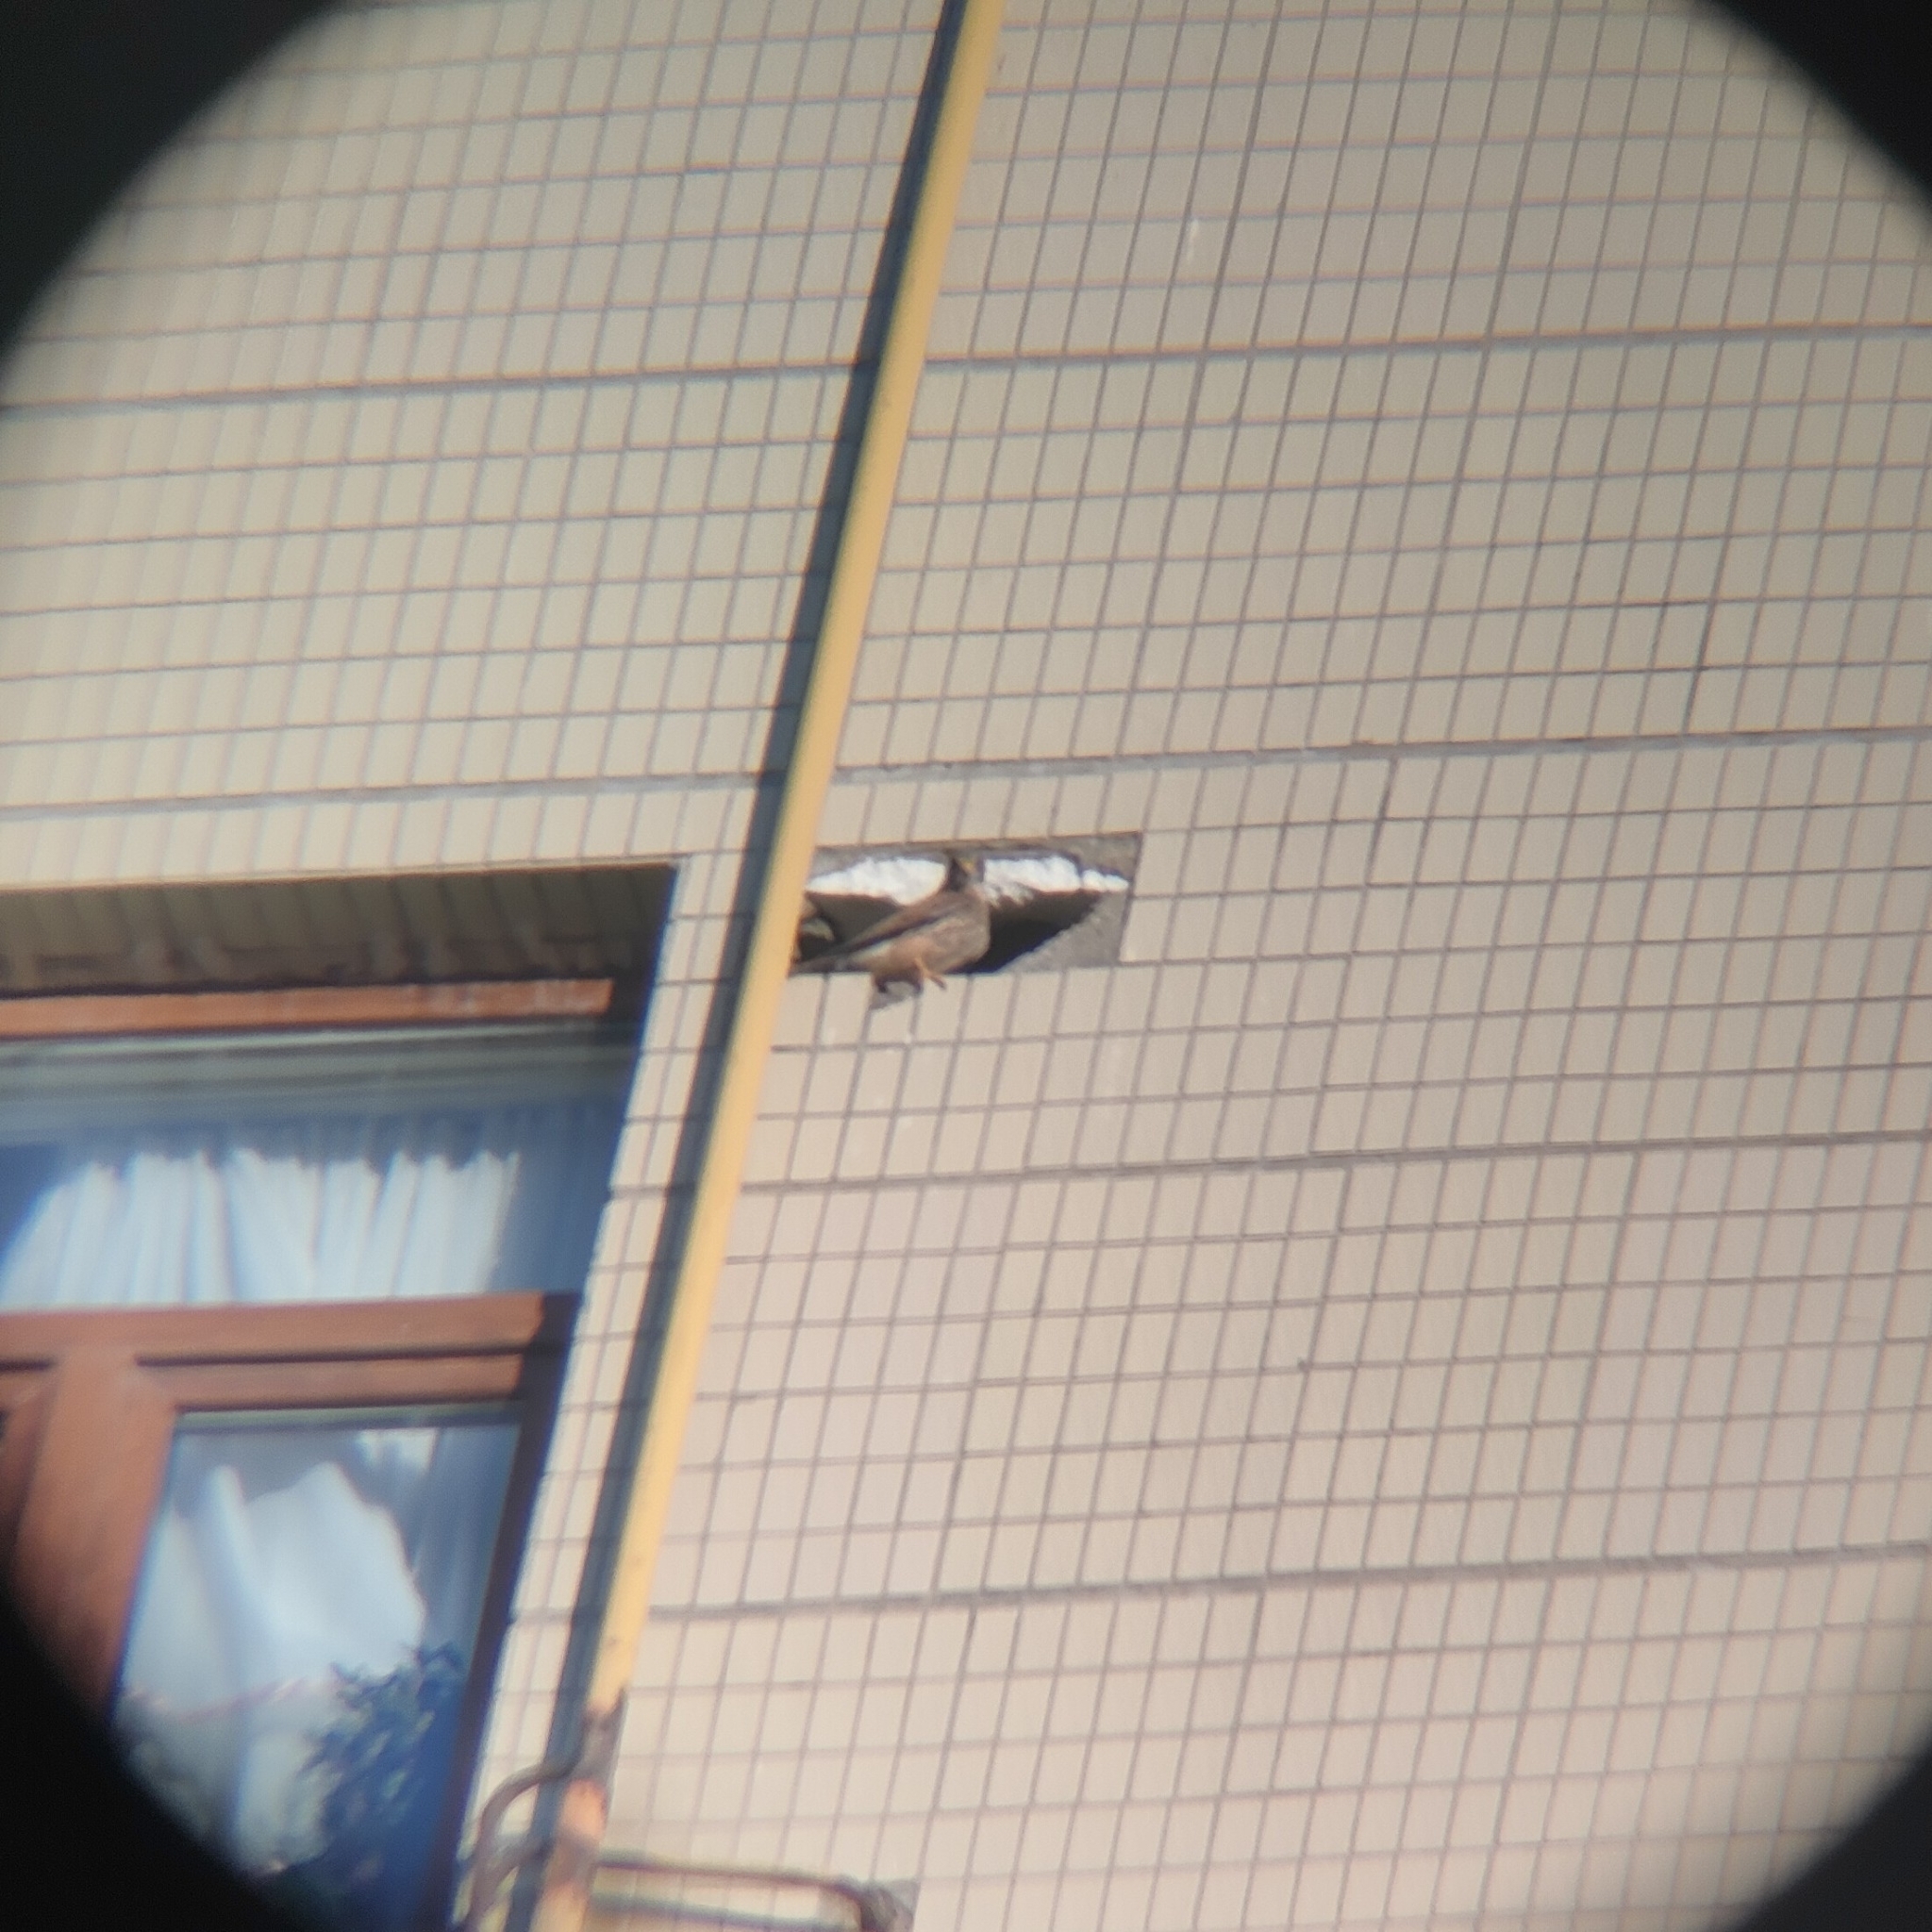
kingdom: Animalia
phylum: Chordata
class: Aves
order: Falconiformes
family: Falconidae
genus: Falco
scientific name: Falco tinnunculus
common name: Common kestrel
